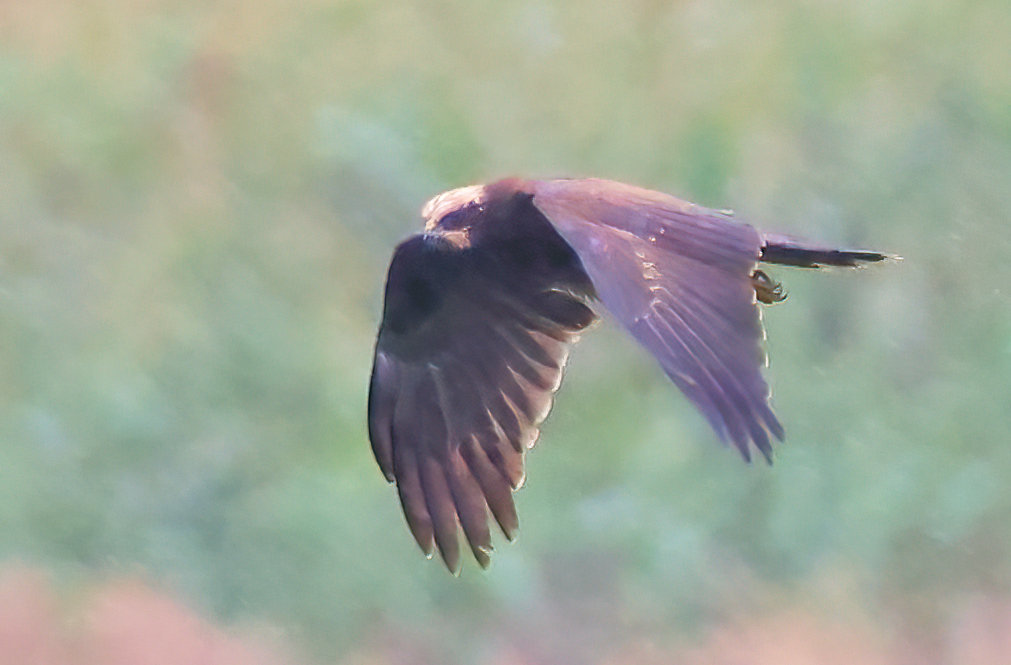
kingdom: Animalia
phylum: Chordata
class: Aves
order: Accipitriformes
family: Accipitridae
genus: Circus
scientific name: Circus aeruginosus
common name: Western marsh harrier
